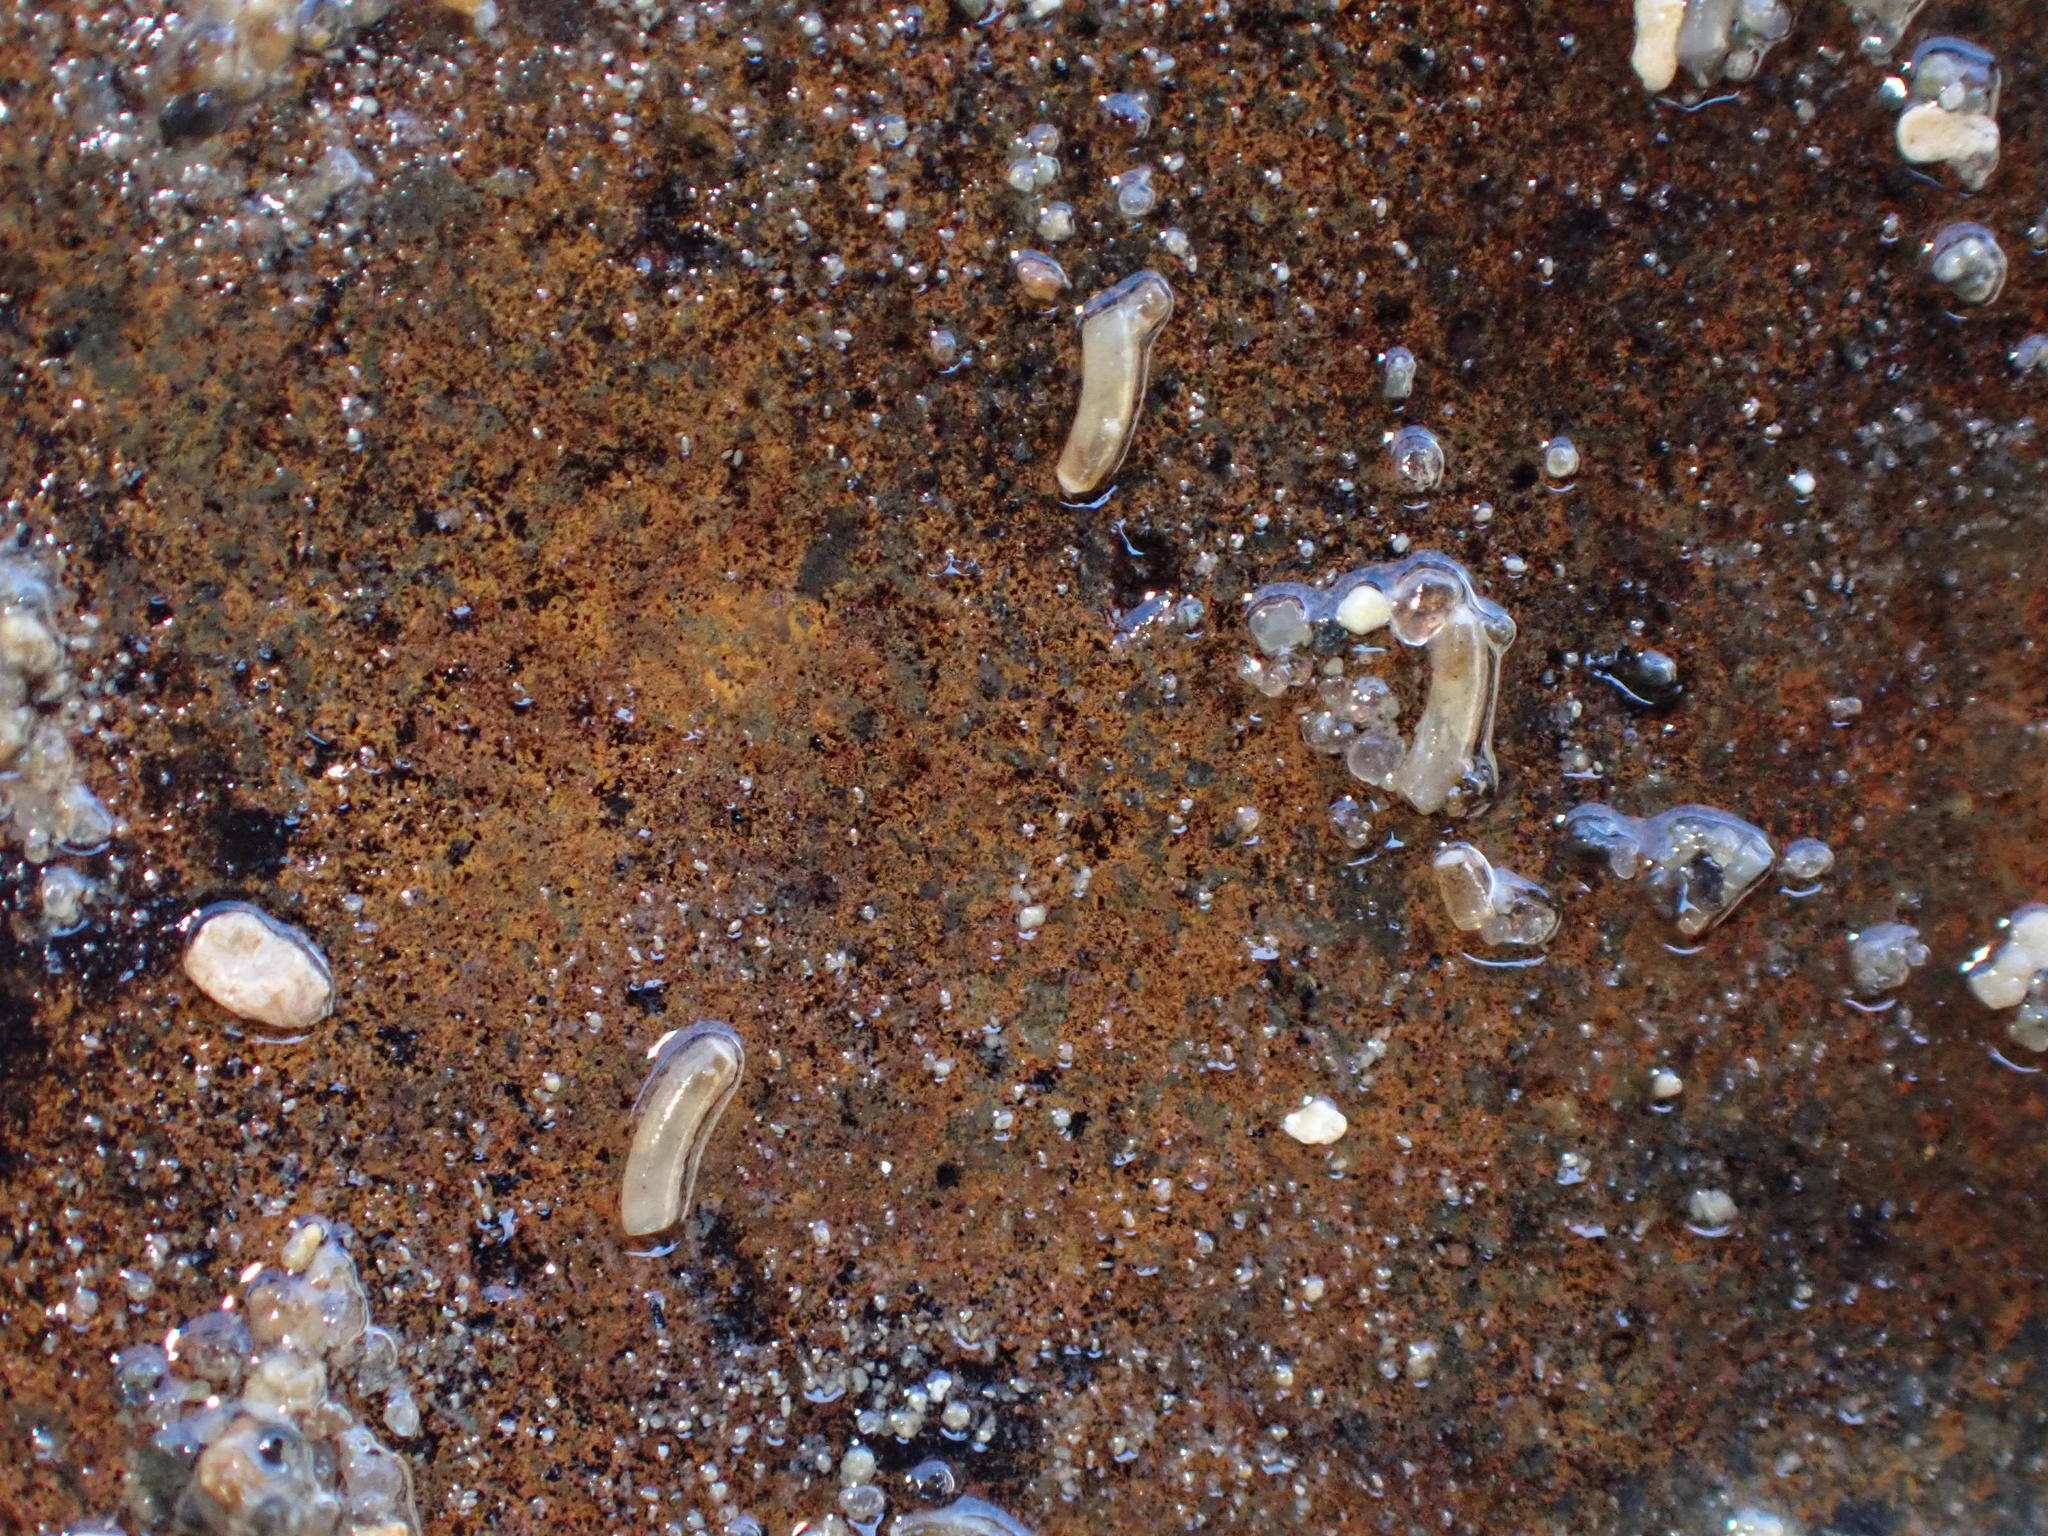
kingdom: Animalia
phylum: Mollusca
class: Gastropoda
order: Littorinimorpha
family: Caecidae
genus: Caecum
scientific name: Caecum
